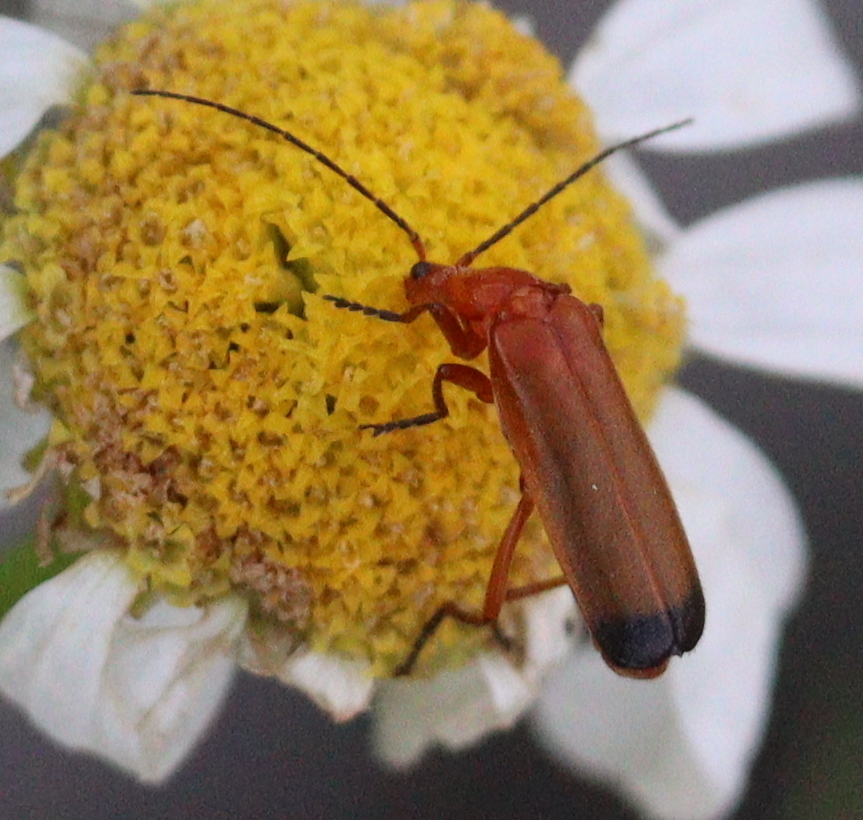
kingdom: Animalia
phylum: Arthropoda
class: Insecta
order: Coleoptera
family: Cantharidae
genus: Rhagonycha
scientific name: Rhagonycha fulva
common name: Common red soldier beetle
